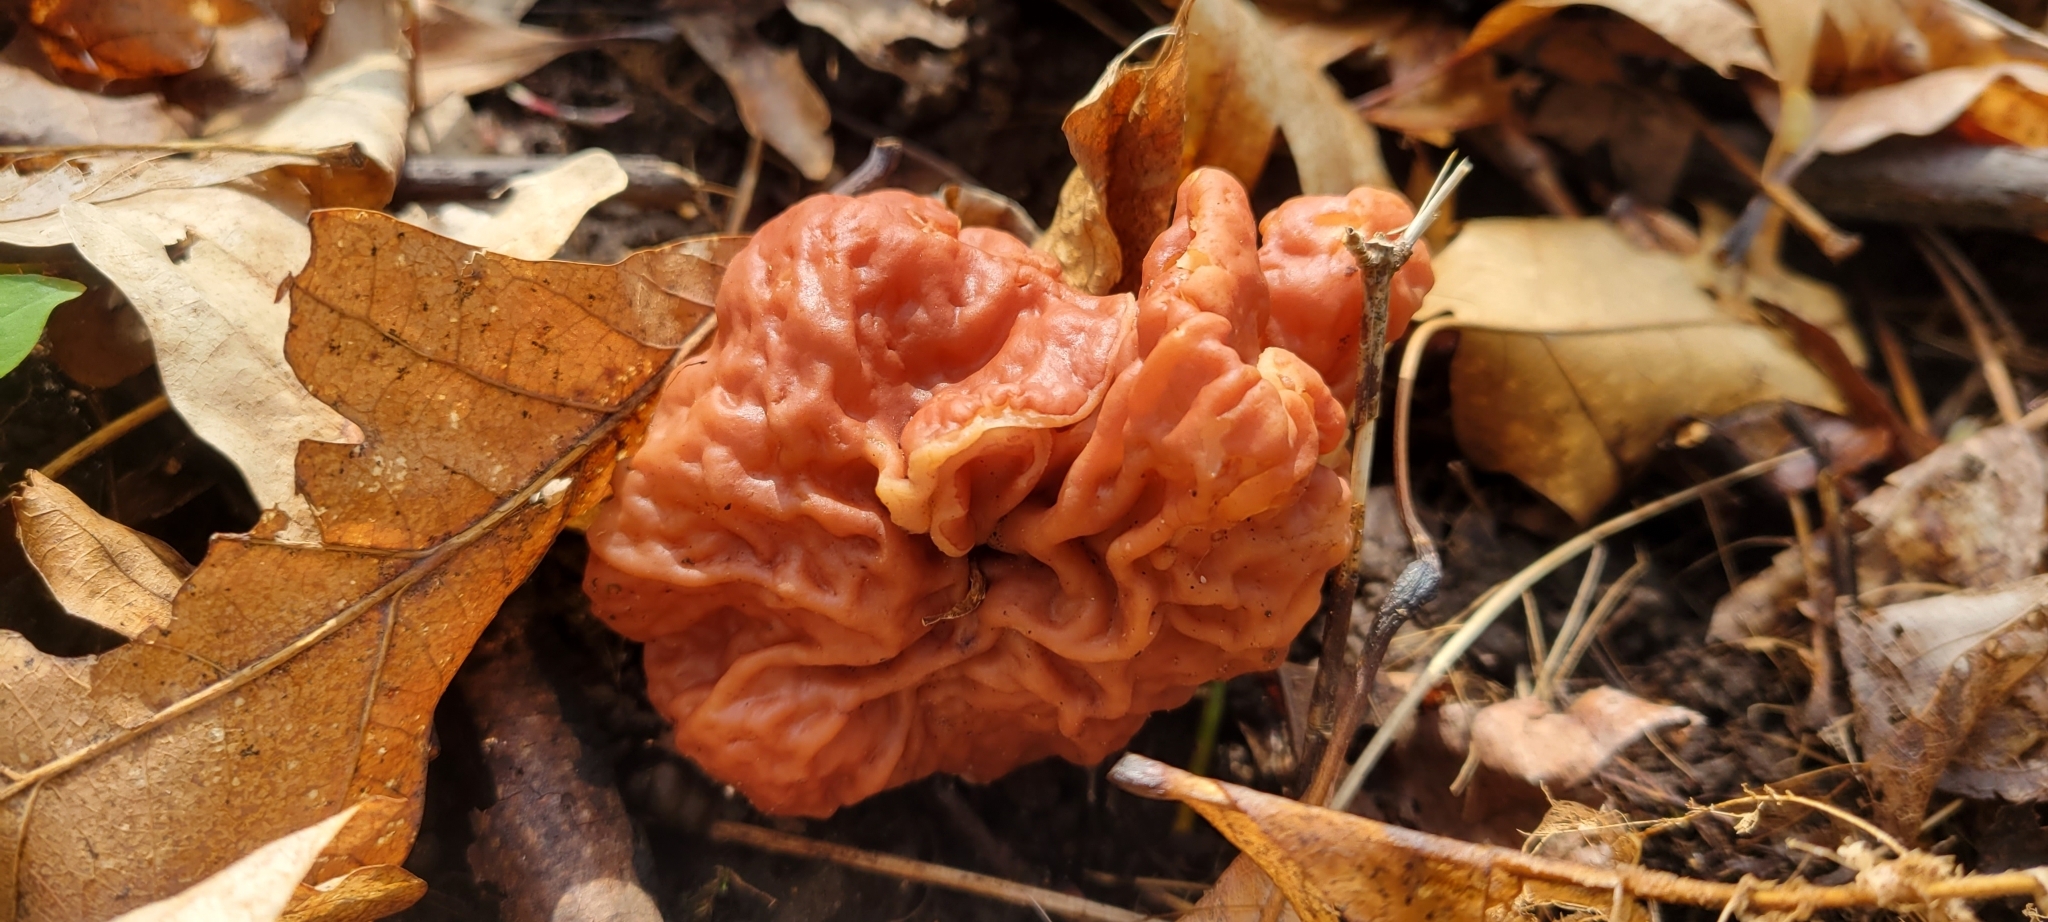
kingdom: Fungi
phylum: Ascomycota
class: Pezizomycetes
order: Pezizales
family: Discinaceae
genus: Discina
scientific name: Discina brunnea
